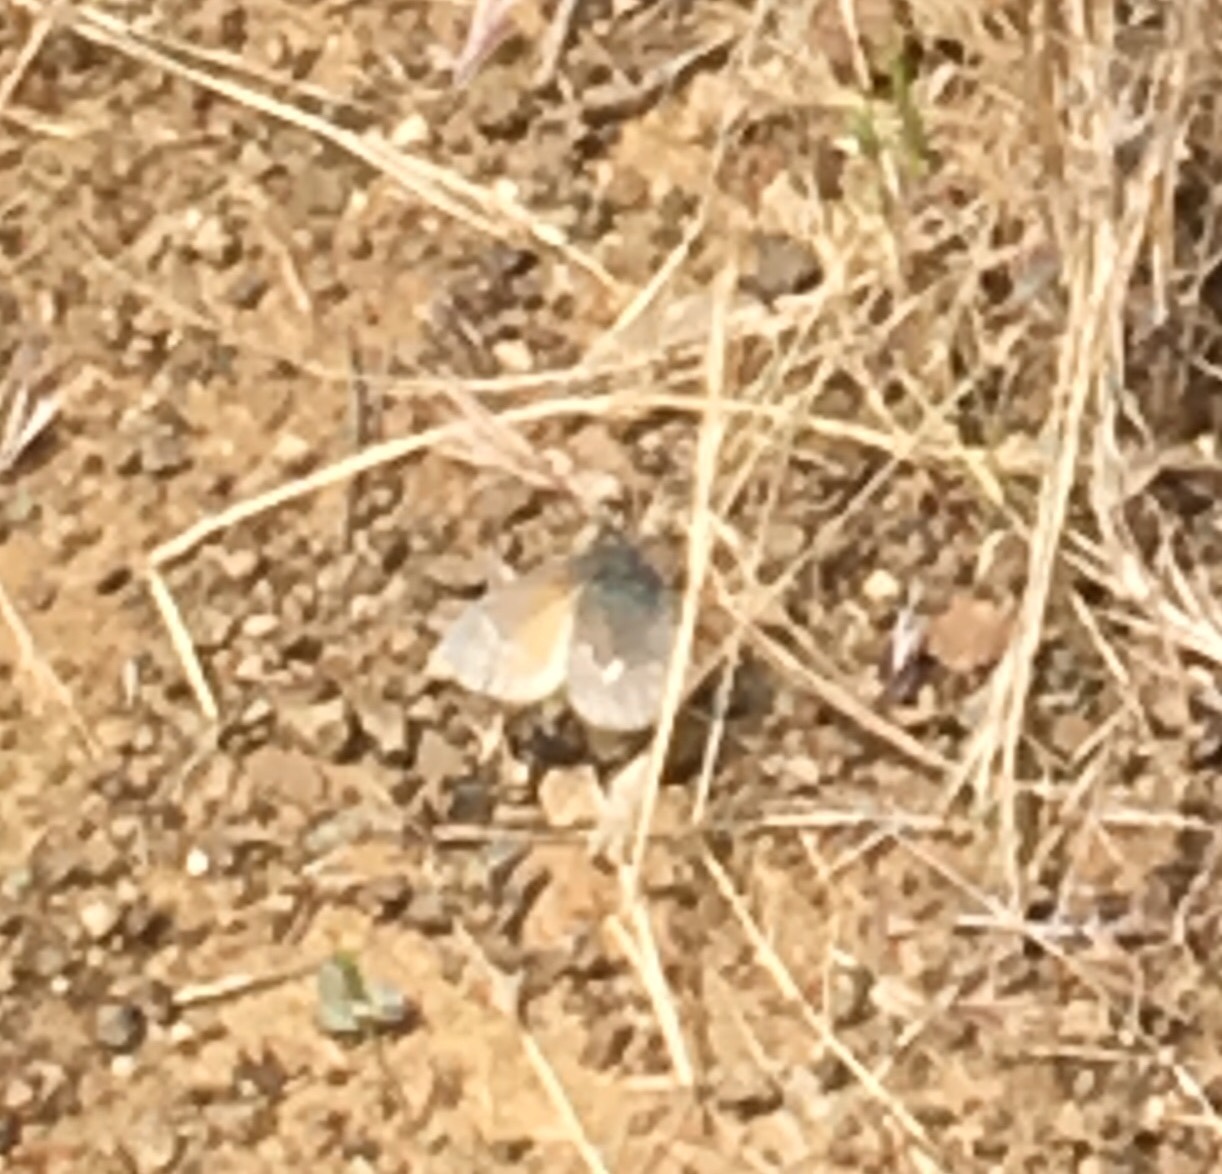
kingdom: Animalia
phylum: Arthropoda
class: Insecta
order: Lepidoptera
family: Nymphalidae
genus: Coenonympha
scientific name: Coenonympha california
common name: Common ringlet
